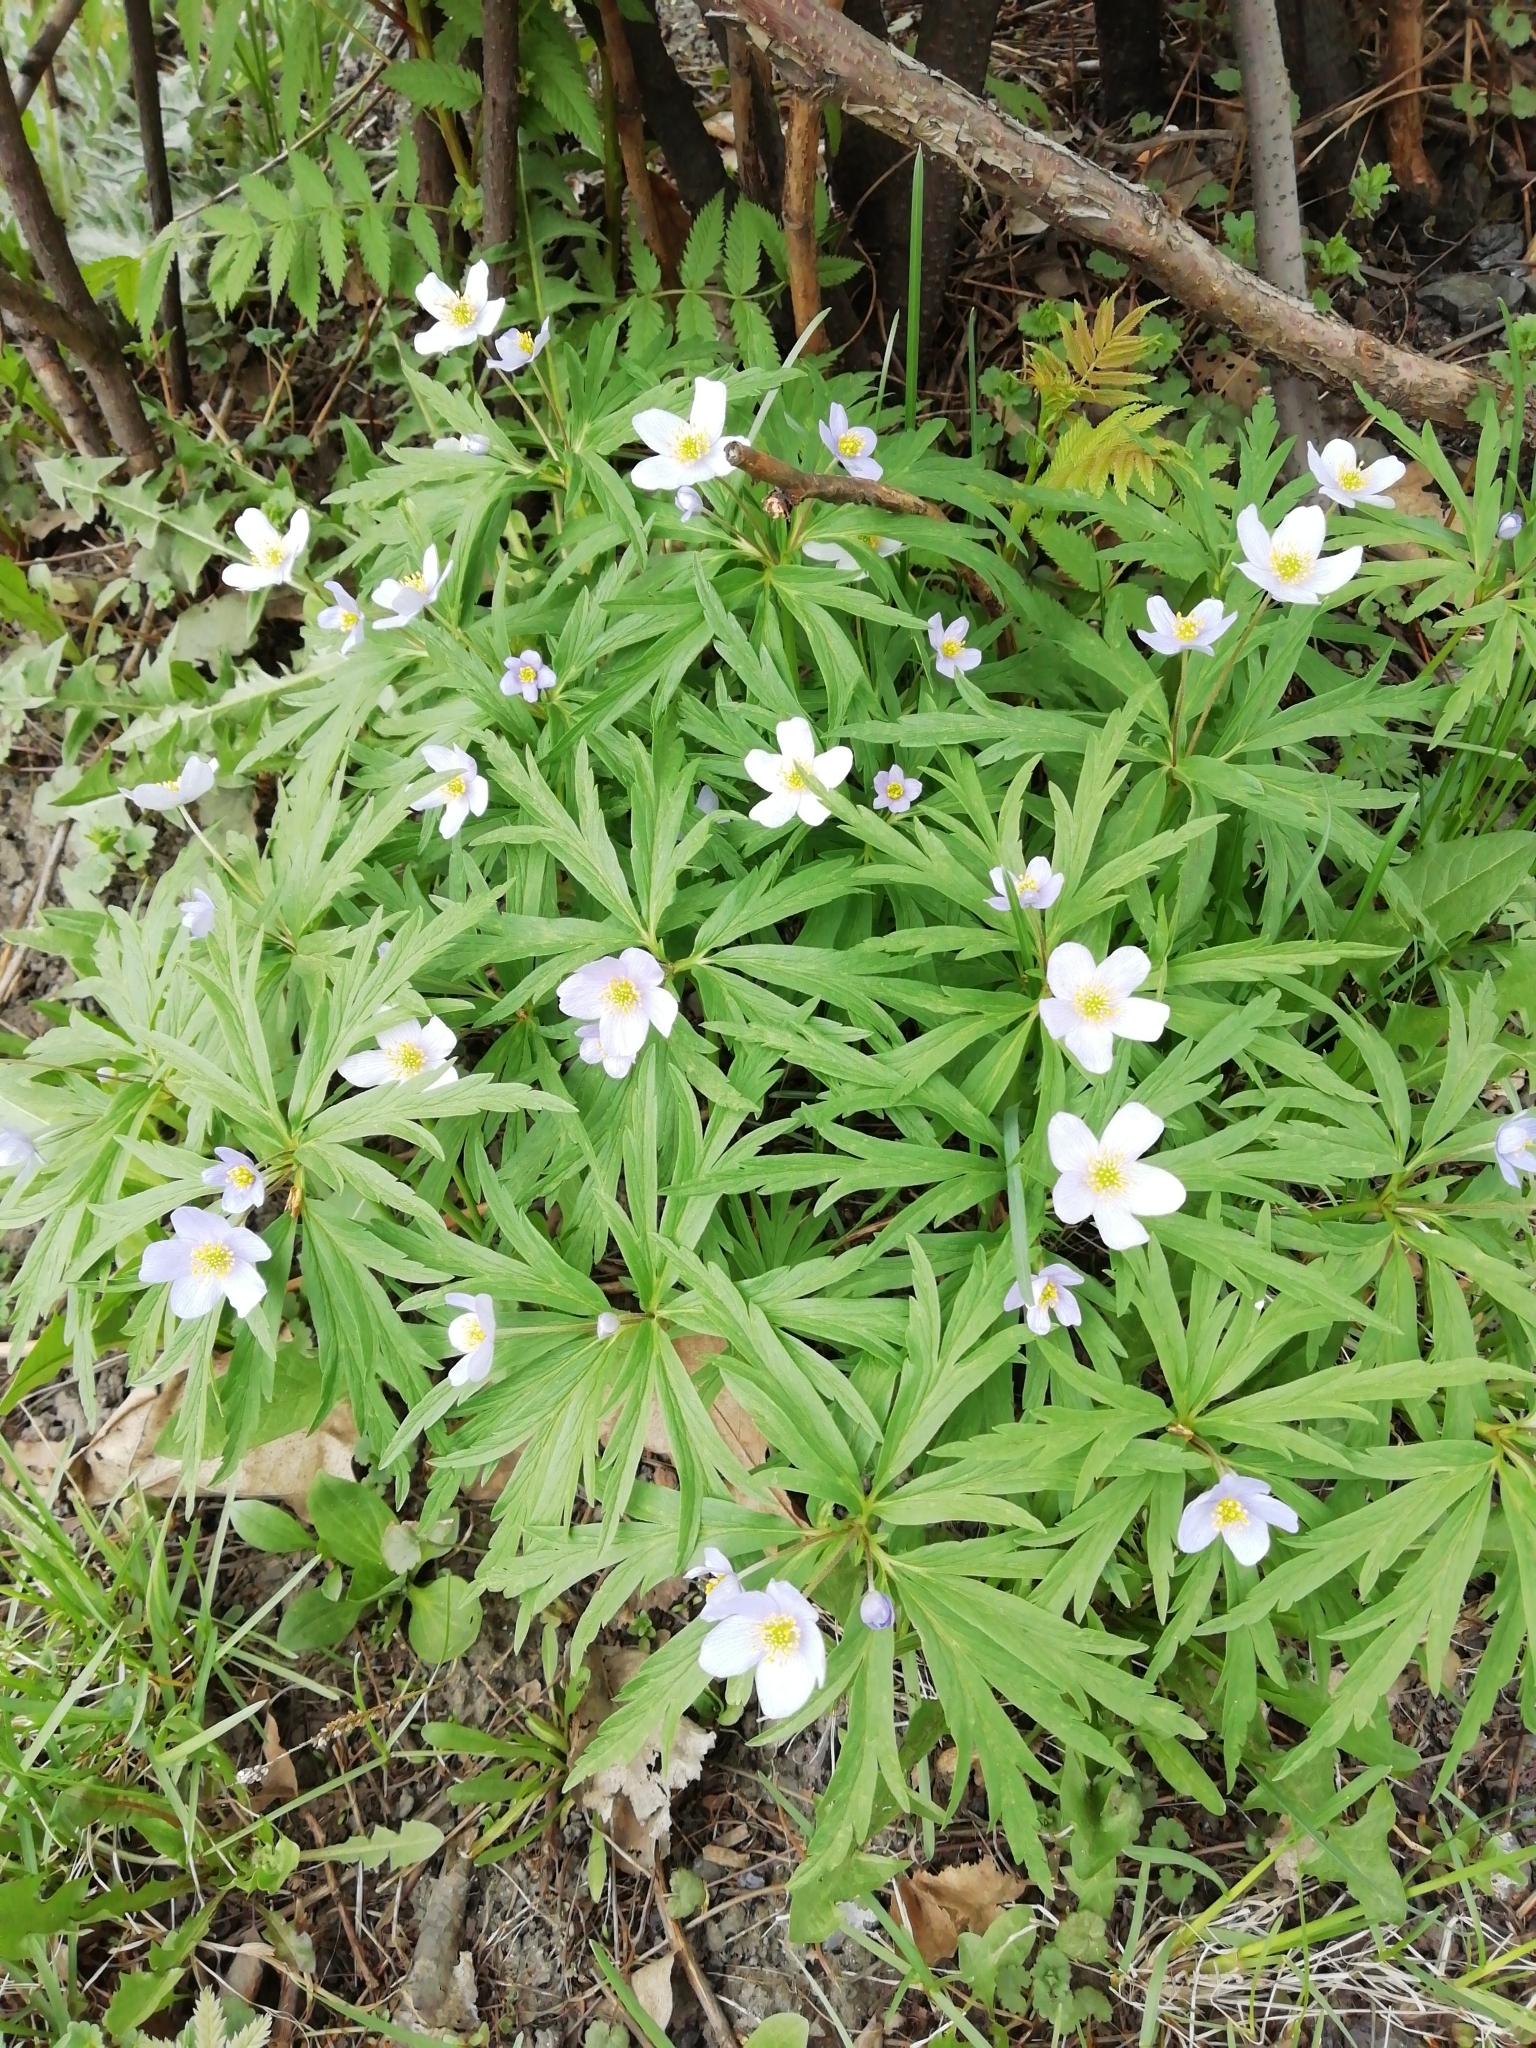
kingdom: Plantae
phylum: Tracheophyta
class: Magnoliopsida
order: Ranunculales
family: Ranunculaceae
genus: Anemone
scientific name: Anemone caerulea
